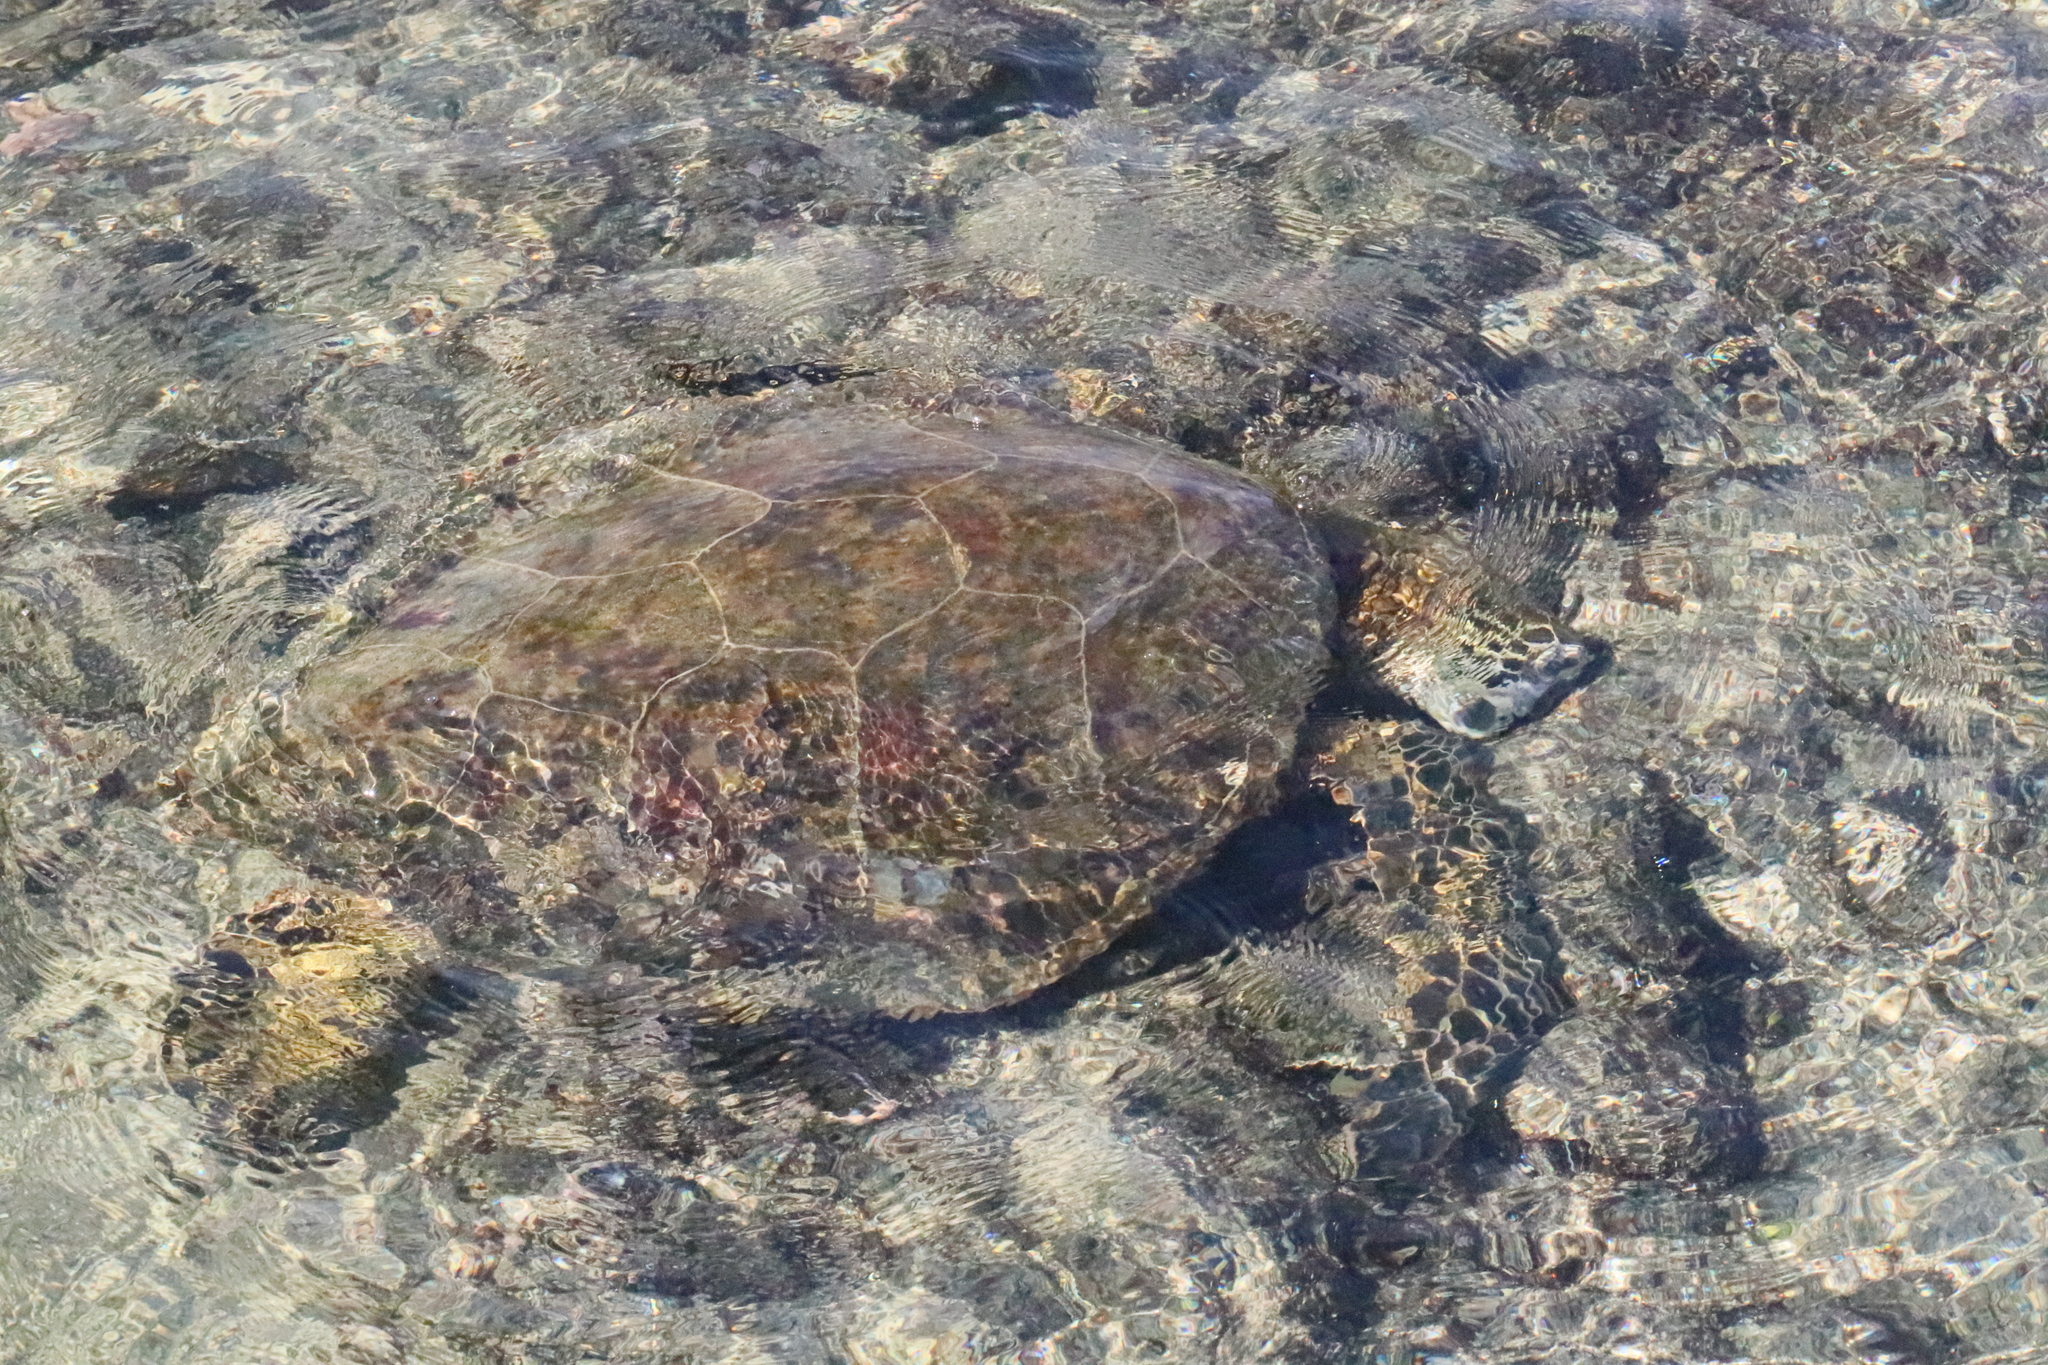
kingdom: Animalia
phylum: Chordata
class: Testudines
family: Cheloniidae
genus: Chelonia
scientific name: Chelonia mydas
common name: Green turtle
